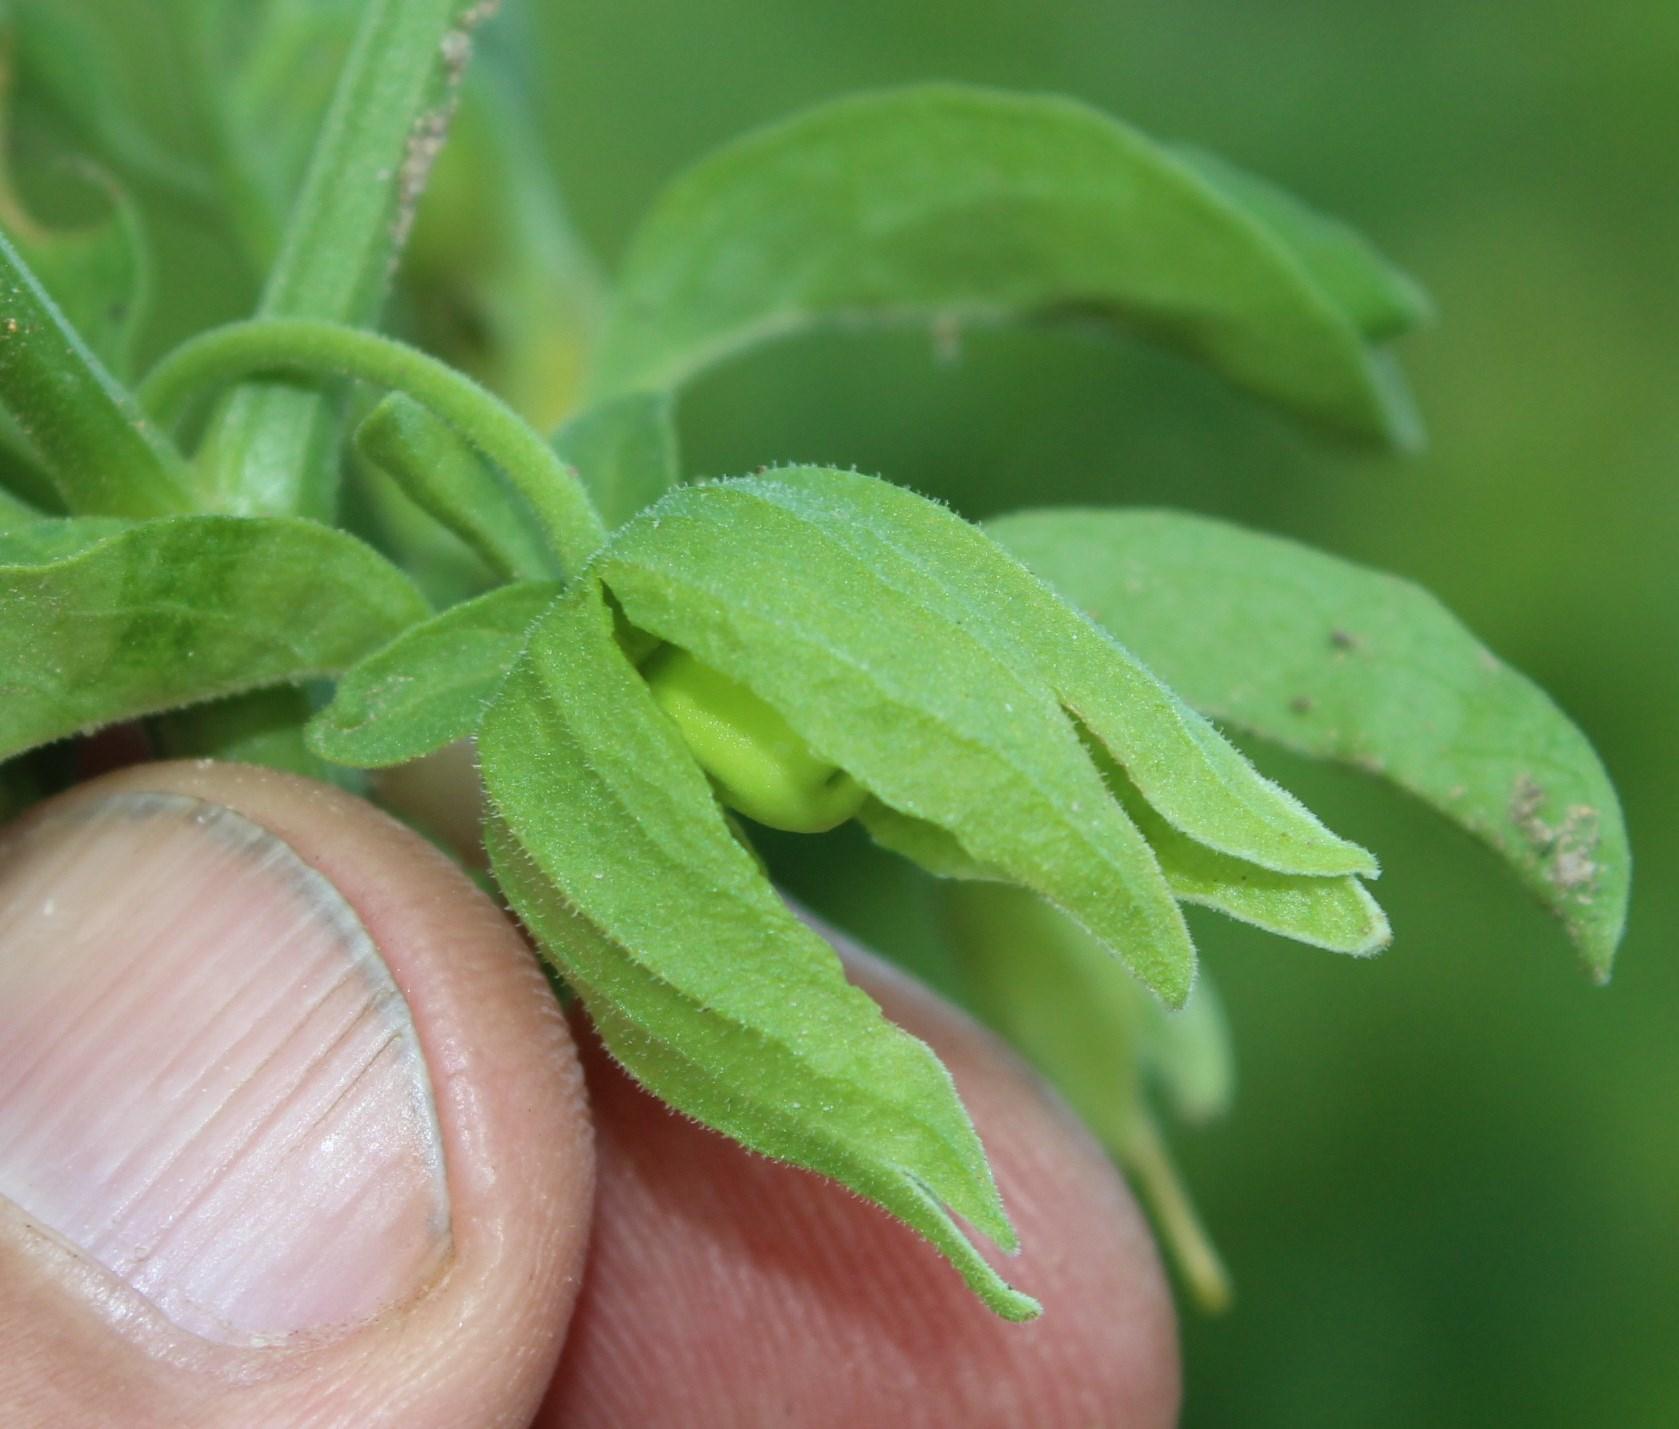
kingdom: Plantae
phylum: Tracheophyta
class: Magnoliopsida
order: Solanales
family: Solanaceae
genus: Physalis
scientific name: Physalis viscosa
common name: Stellate ground-cherry
